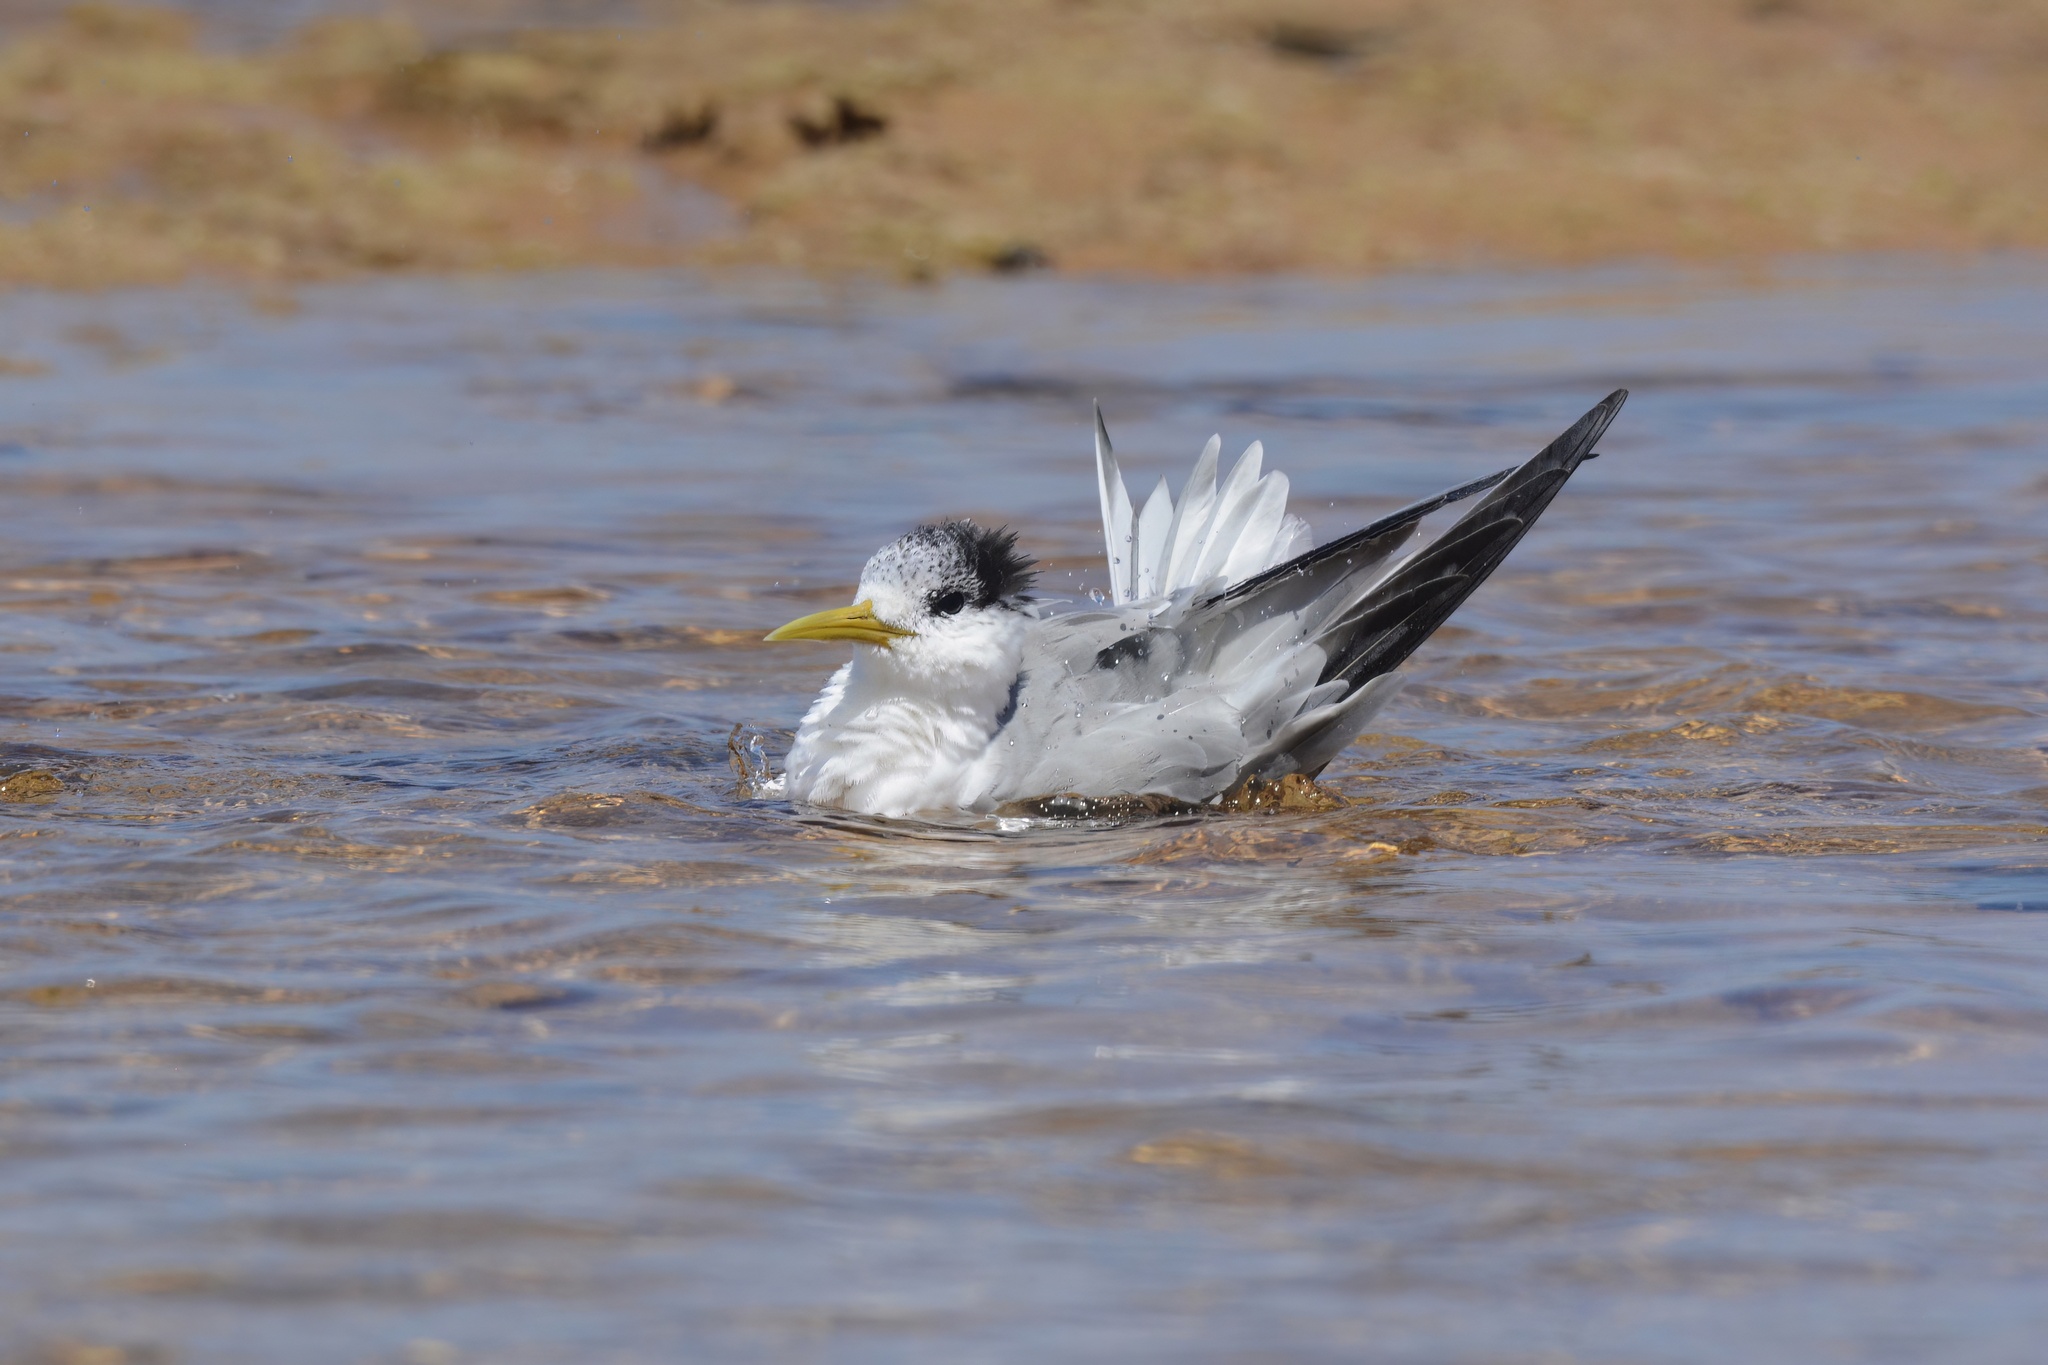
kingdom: Animalia
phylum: Chordata
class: Aves
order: Charadriiformes
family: Laridae
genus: Thalasseus
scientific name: Thalasseus bergii
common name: Greater crested tern
